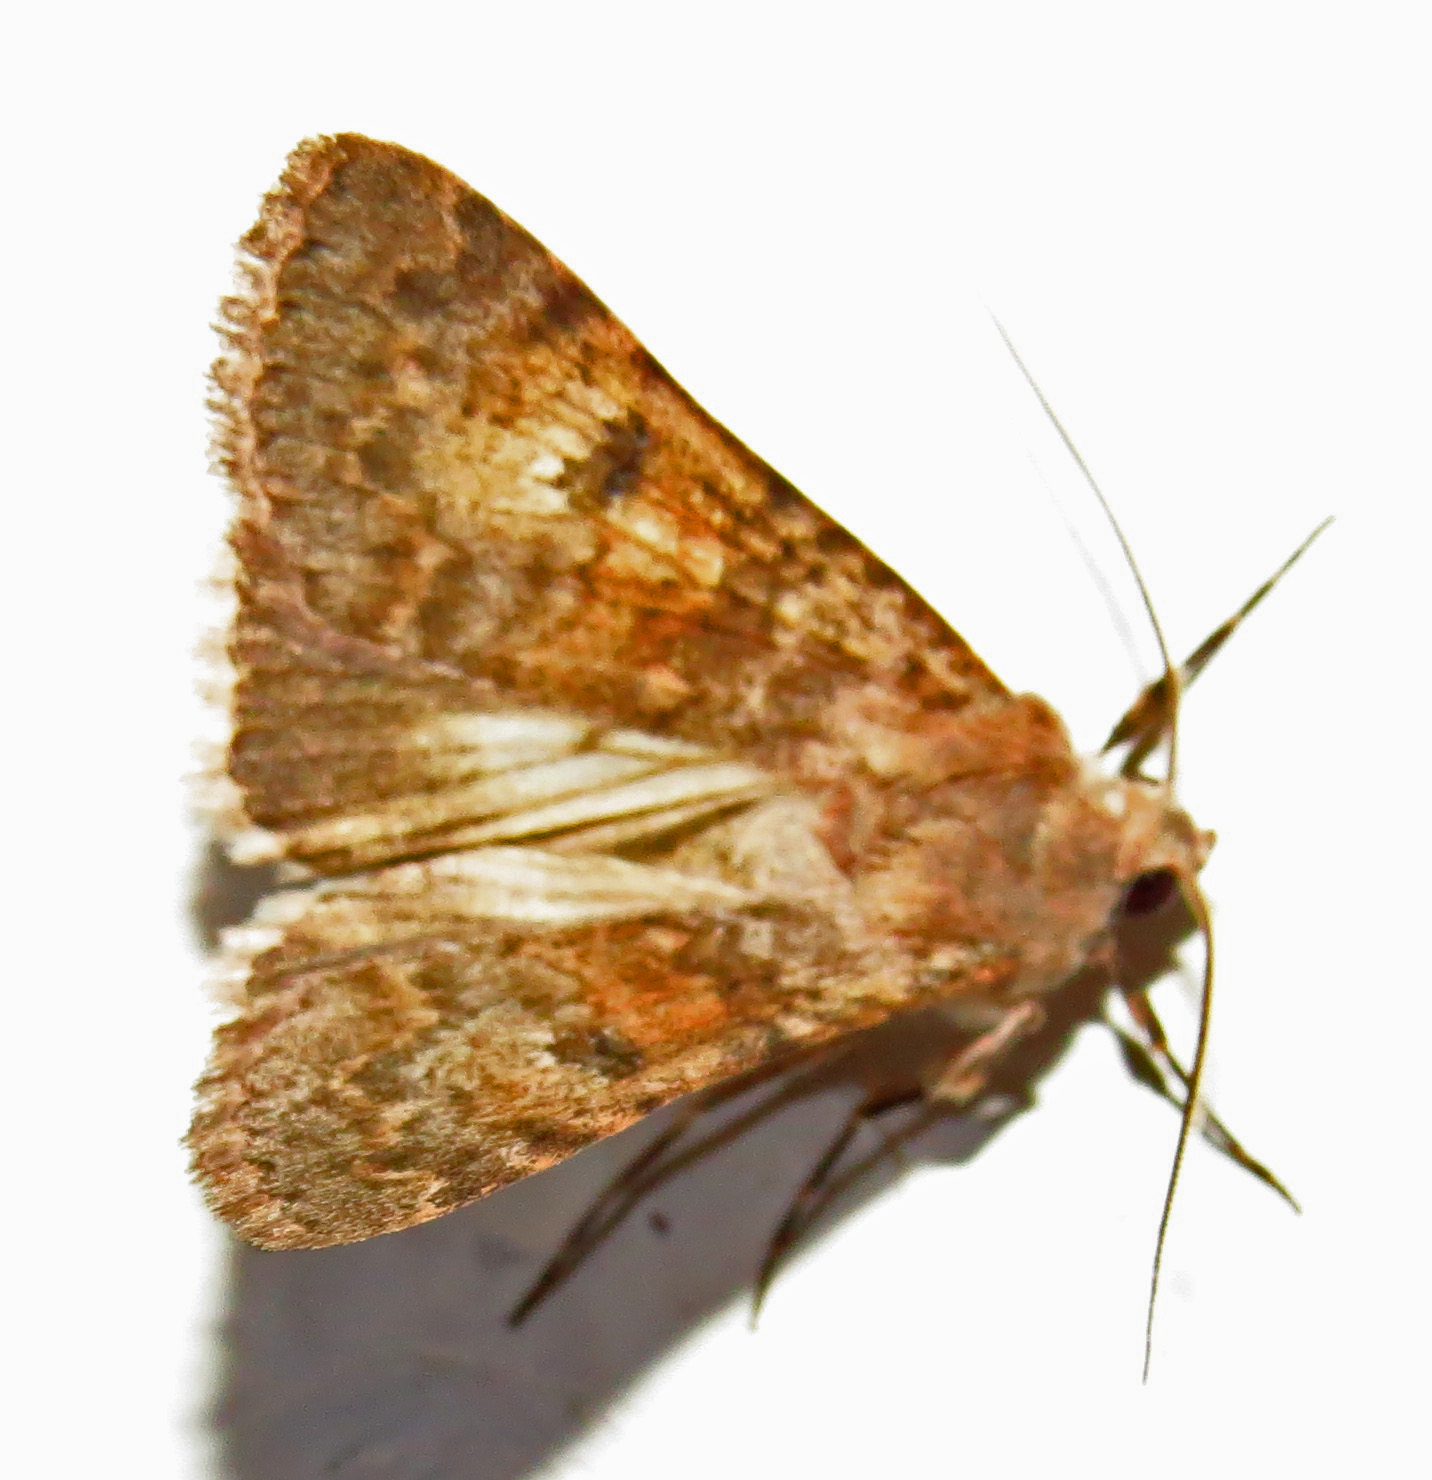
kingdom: Animalia
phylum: Arthropoda
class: Insecta
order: Lepidoptera
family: Erebidae
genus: Drasteria
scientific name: Drasteria inepta
